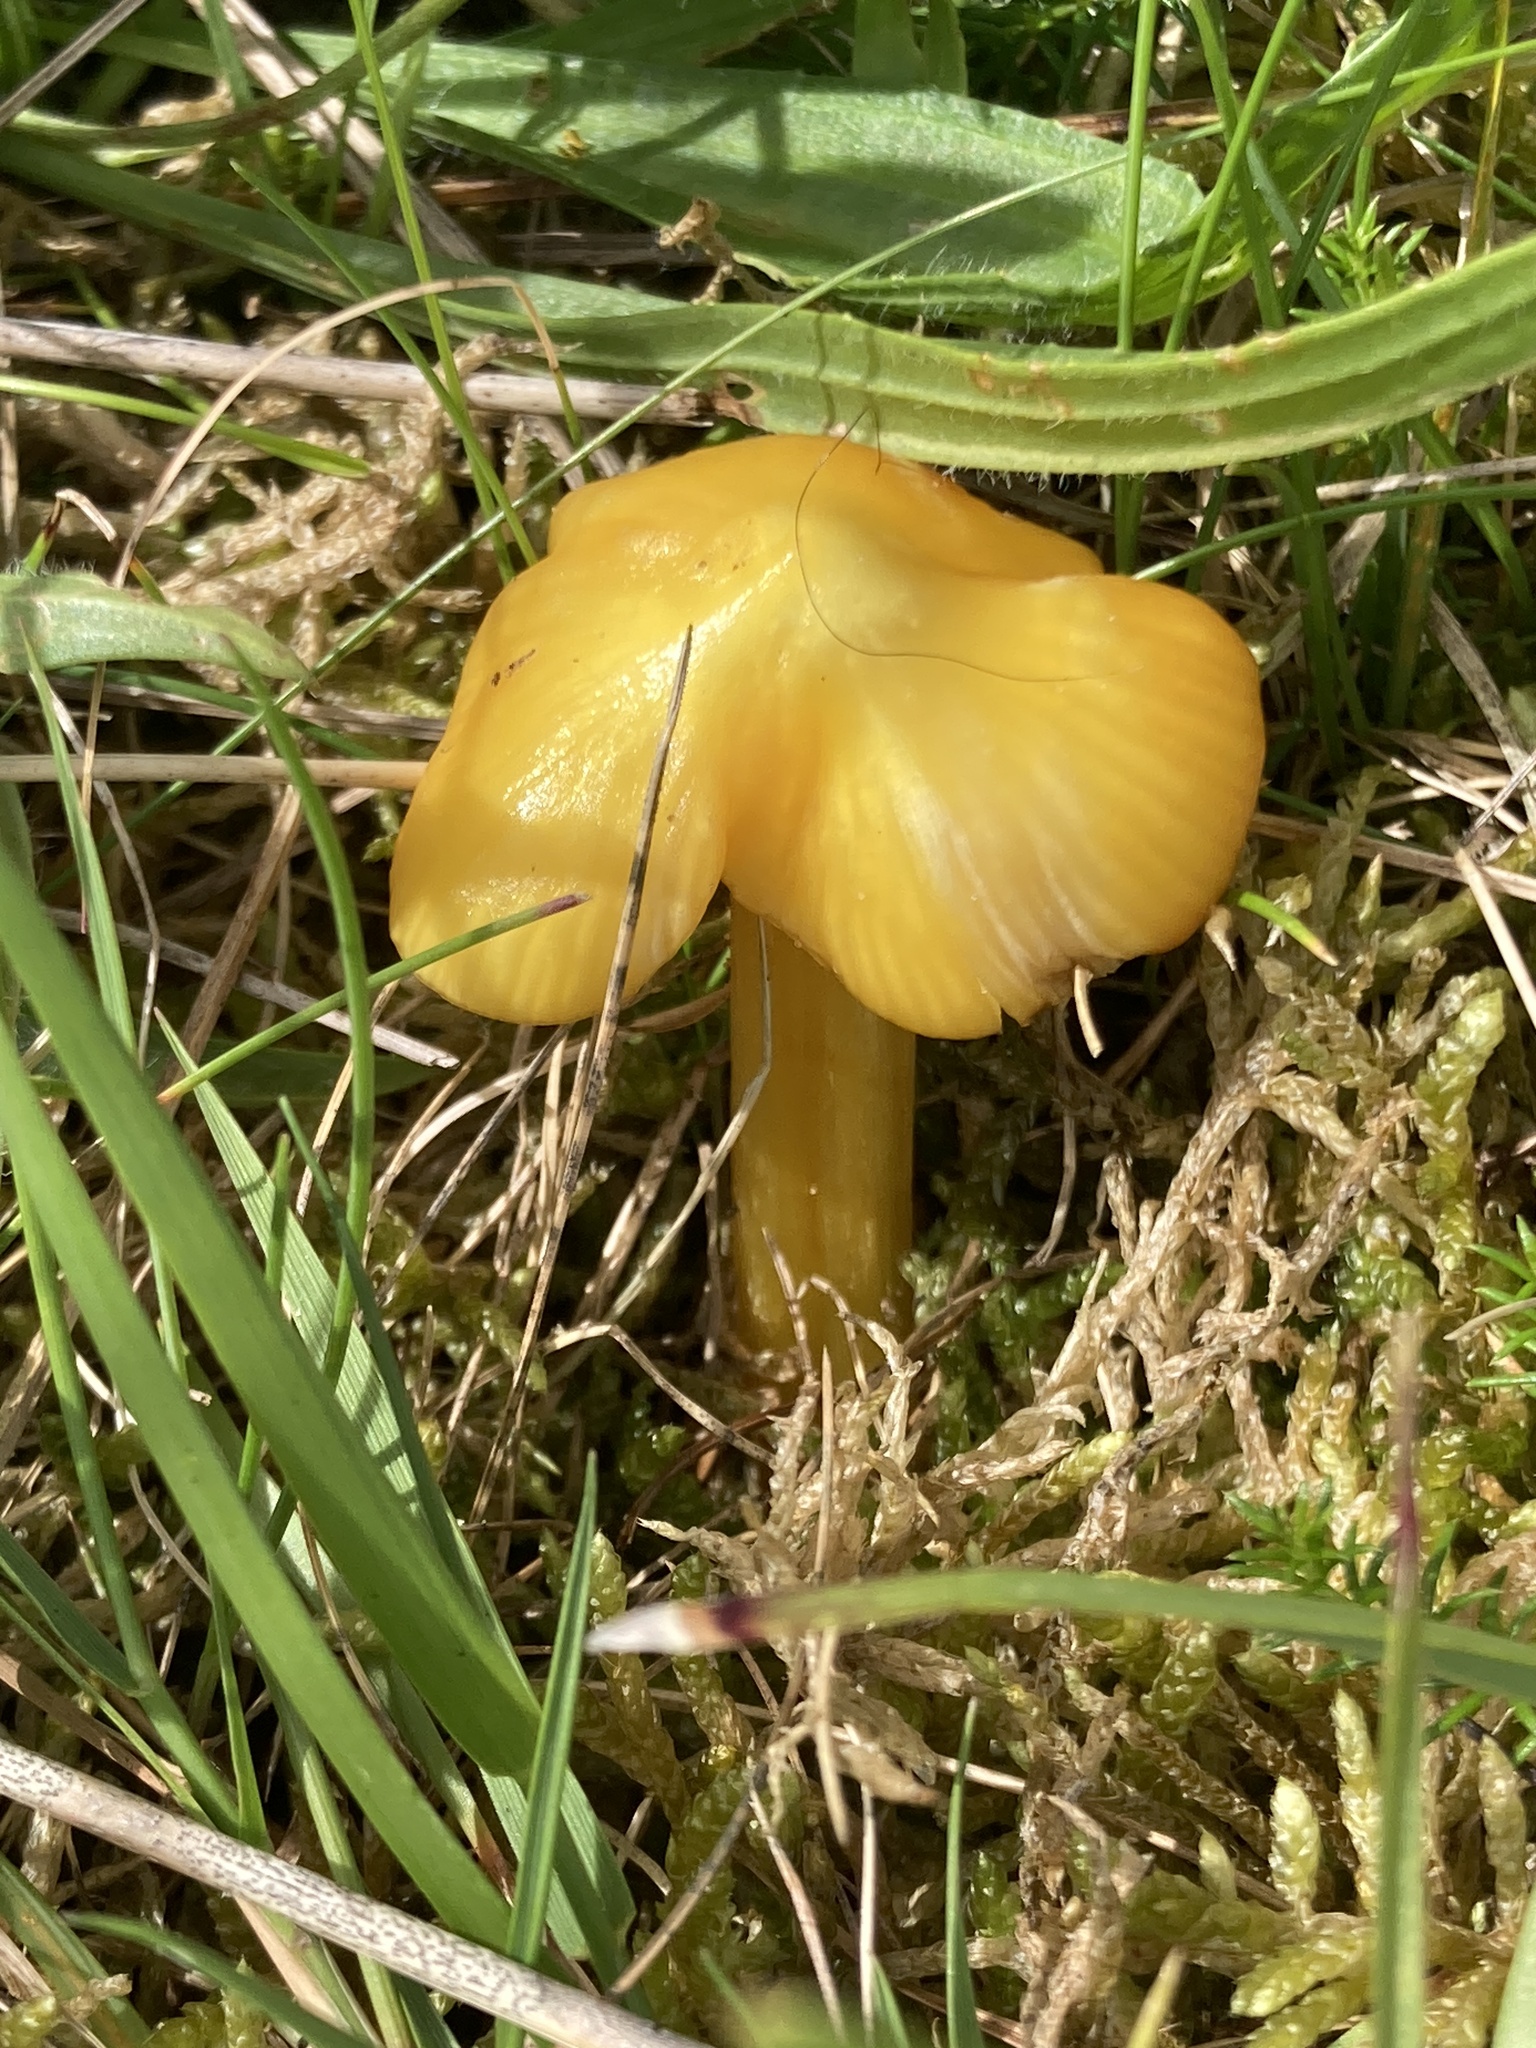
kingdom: Fungi
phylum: Basidiomycota
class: Agaricomycetes
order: Agaricales
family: Hygrophoraceae
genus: Hygrocybe
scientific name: Hygrocybe acutoconica
